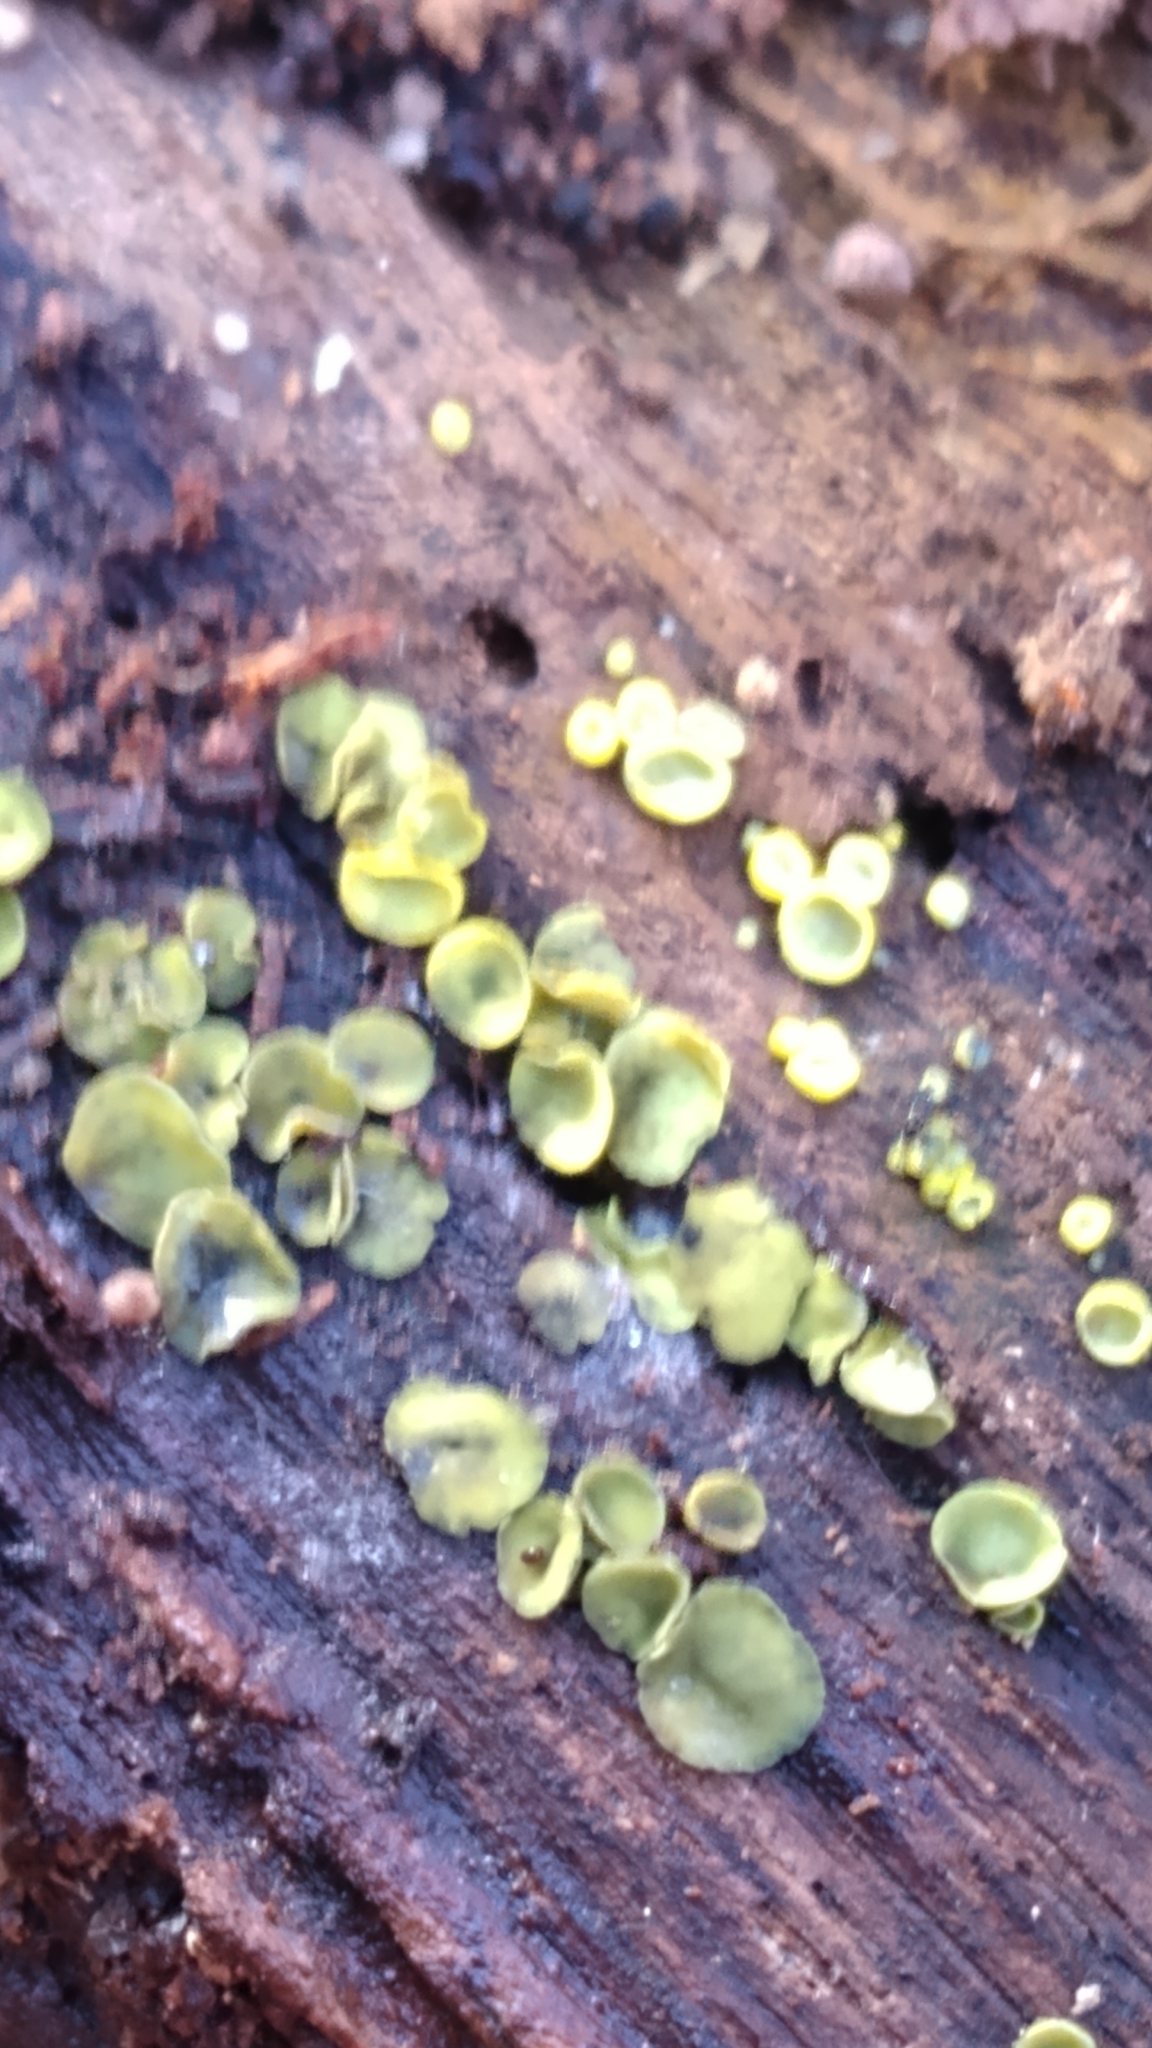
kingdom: Fungi
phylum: Ascomycota
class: Leotiomycetes
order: Helotiales
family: Chlorospleniaceae
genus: Chlorosplenium
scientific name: Chlorosplenium chlora
